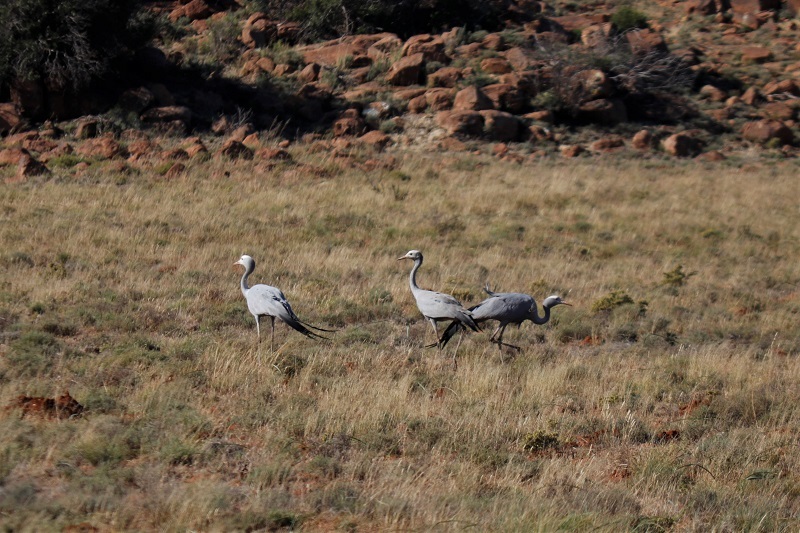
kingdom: Animalia
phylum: Chordata
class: Aves
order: Gruiformes
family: Gruidae
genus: Anthropoides
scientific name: Anthropoides paradiseus
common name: Blue crane
